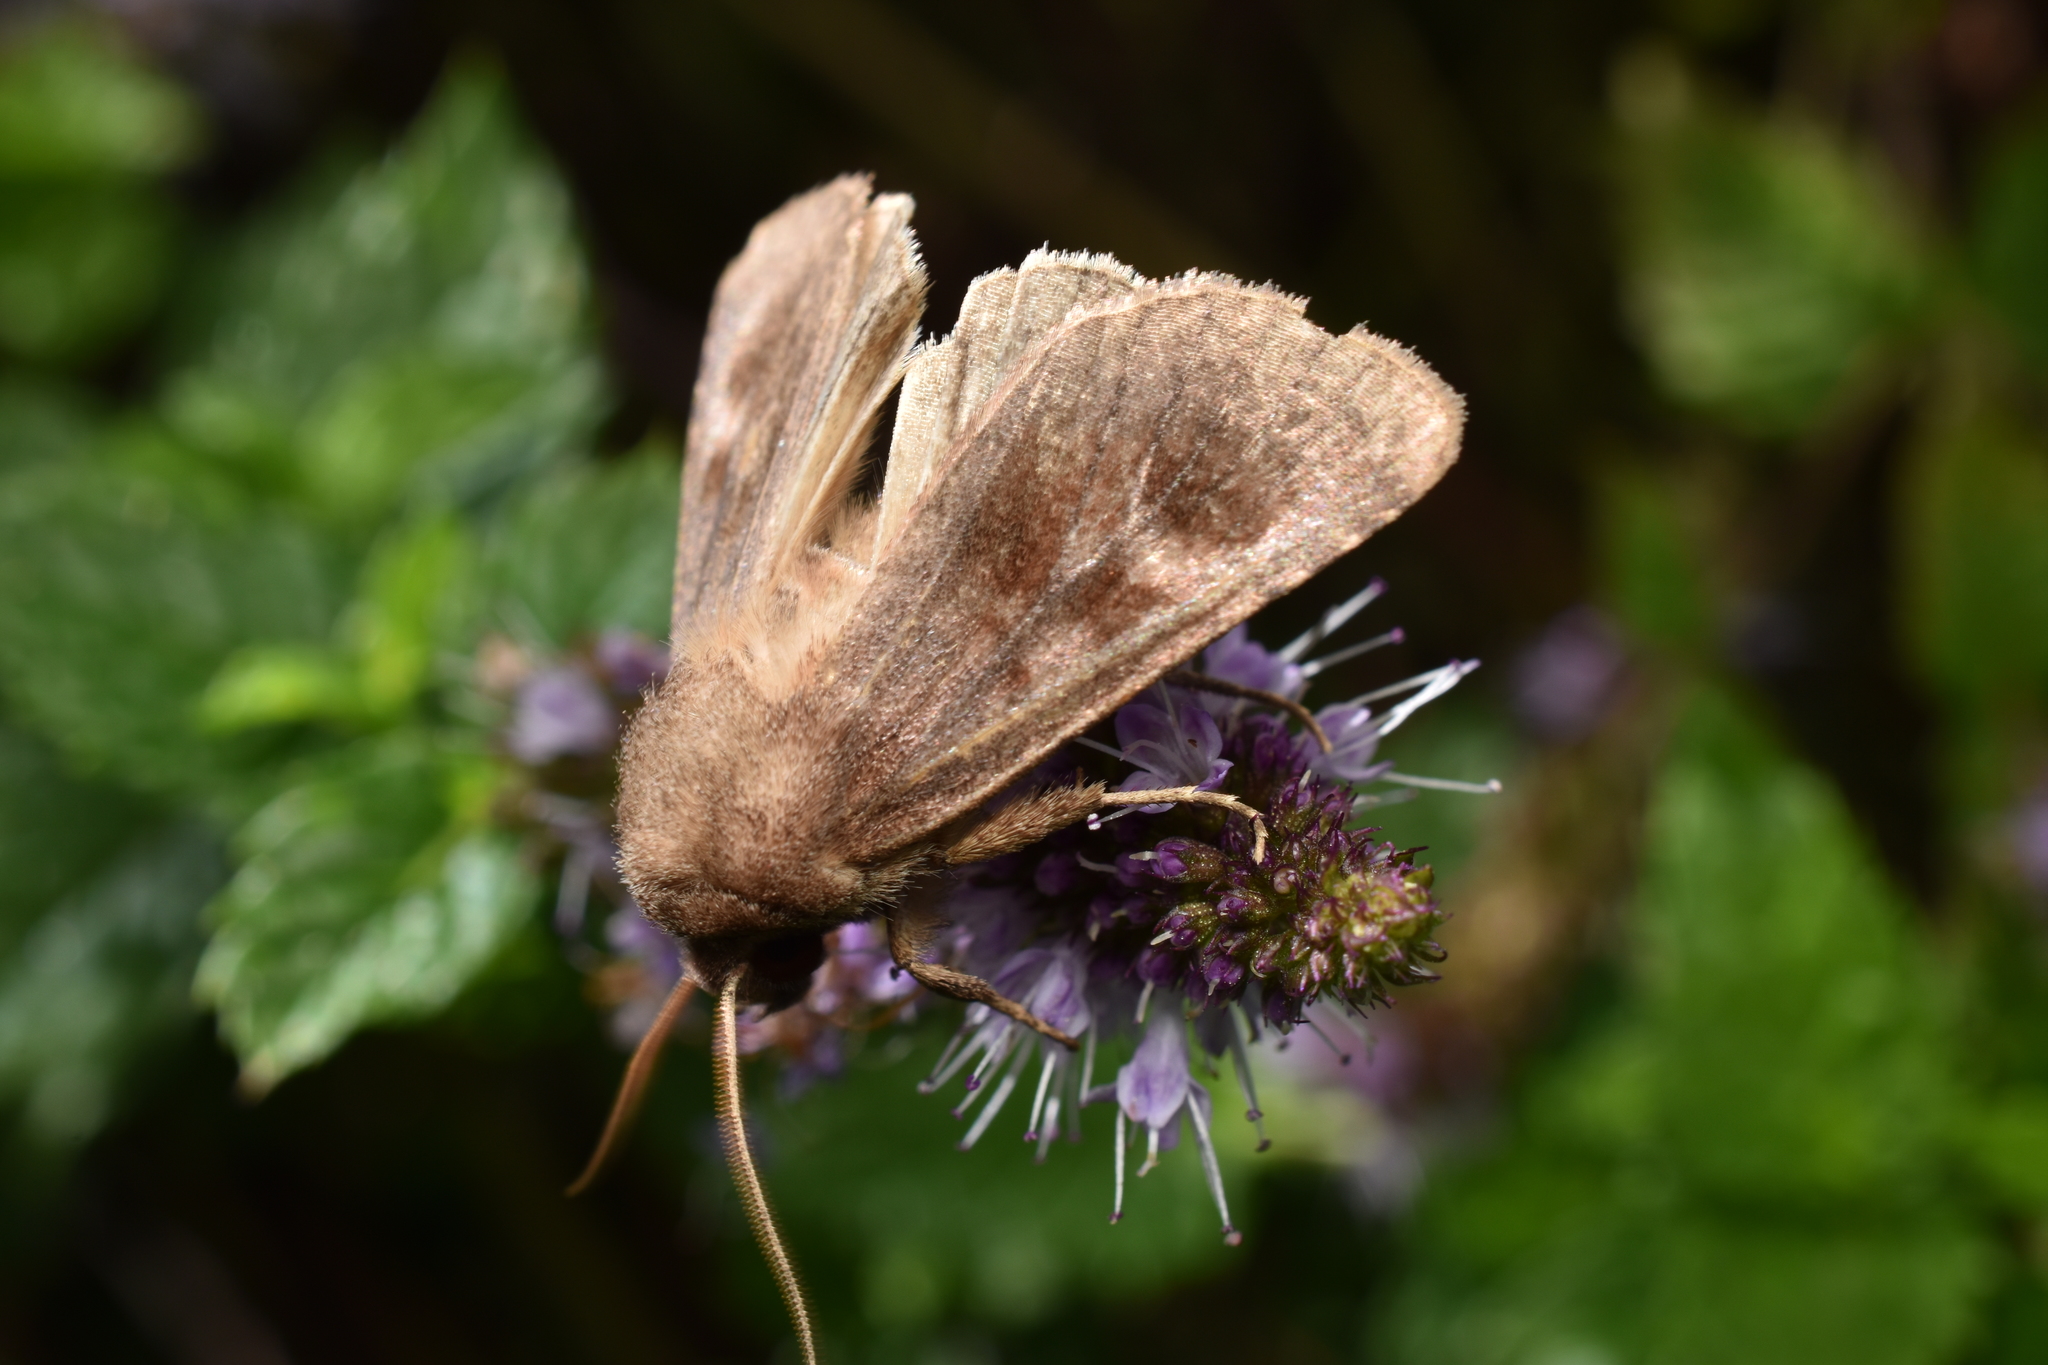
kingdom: Animalia
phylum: Arthropoda
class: Insecta
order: Lepidoptera
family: Noctuidae
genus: Nephelodes
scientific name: Nephelodes minians
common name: Bronzed cutworm
